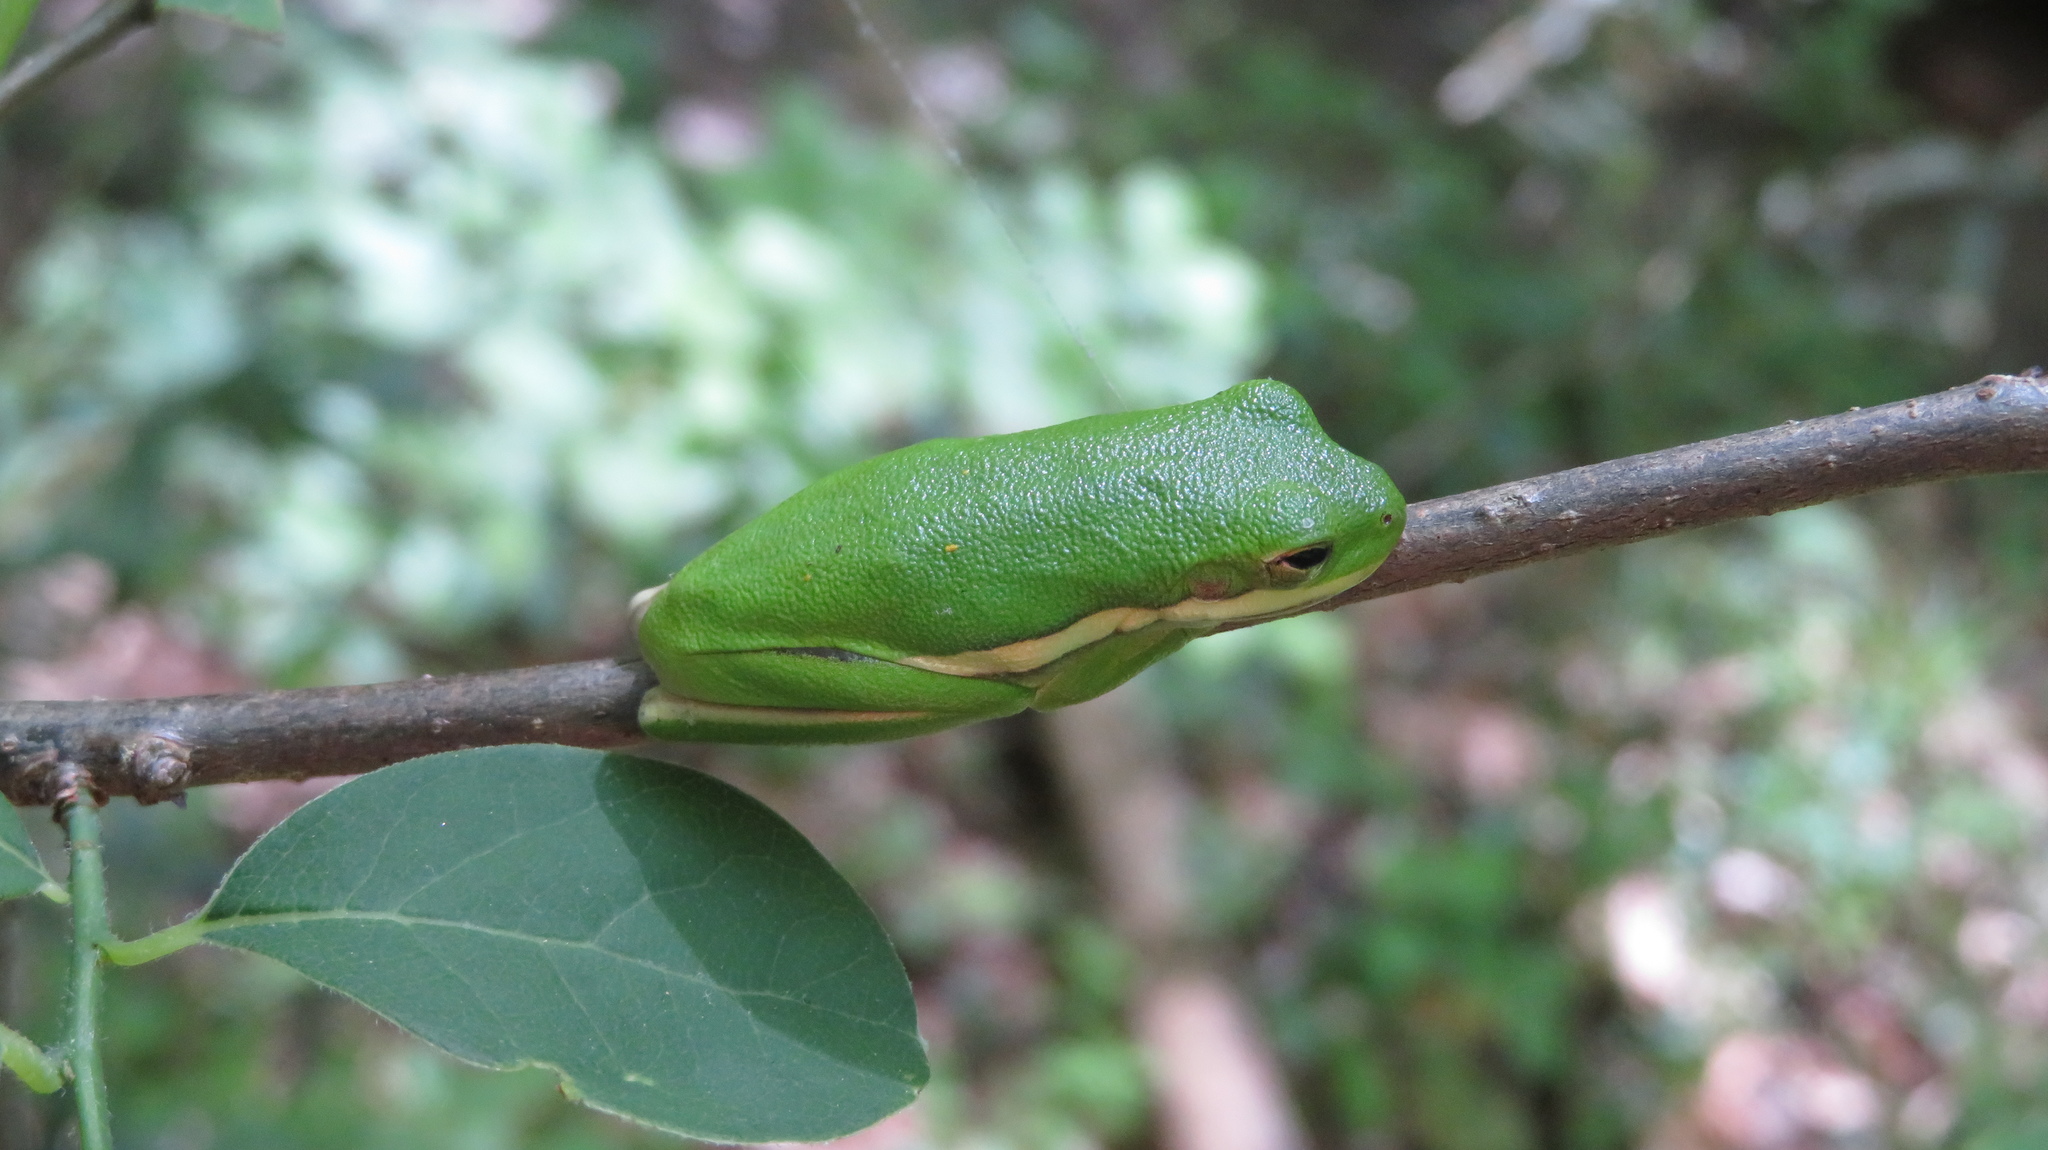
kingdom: Animalia
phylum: Chordata
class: Amphibia
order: Anura
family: Hylidae
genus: Dryophytes
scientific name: Dryophytes cinereus
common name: Green treefrog
